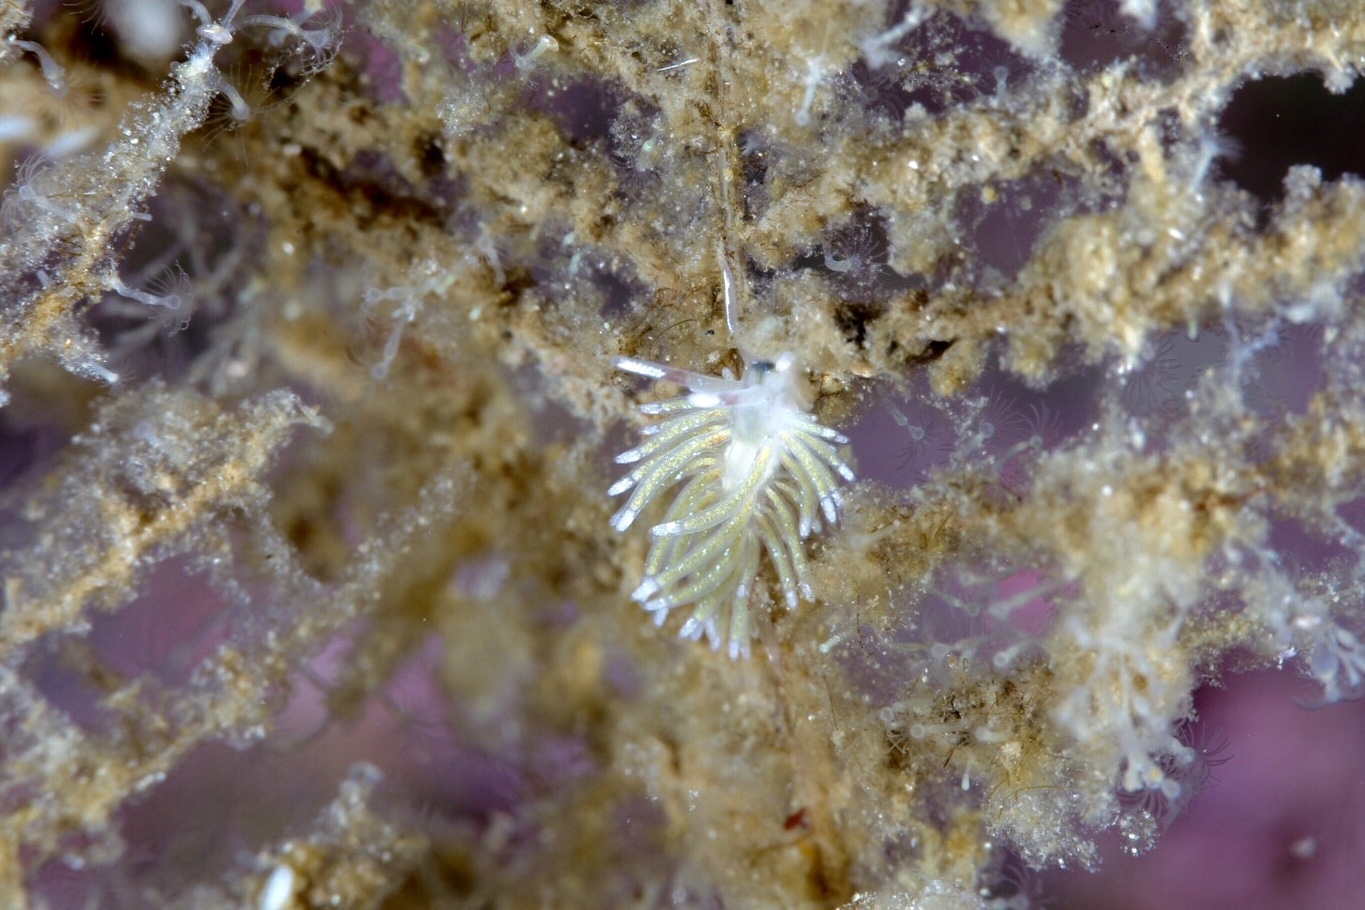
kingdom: Animalia
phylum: Mollusca
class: Gastropoda
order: Nudibranchia
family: Trinchesiidae
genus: Rubramoena
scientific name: Rubramoena rubescens
